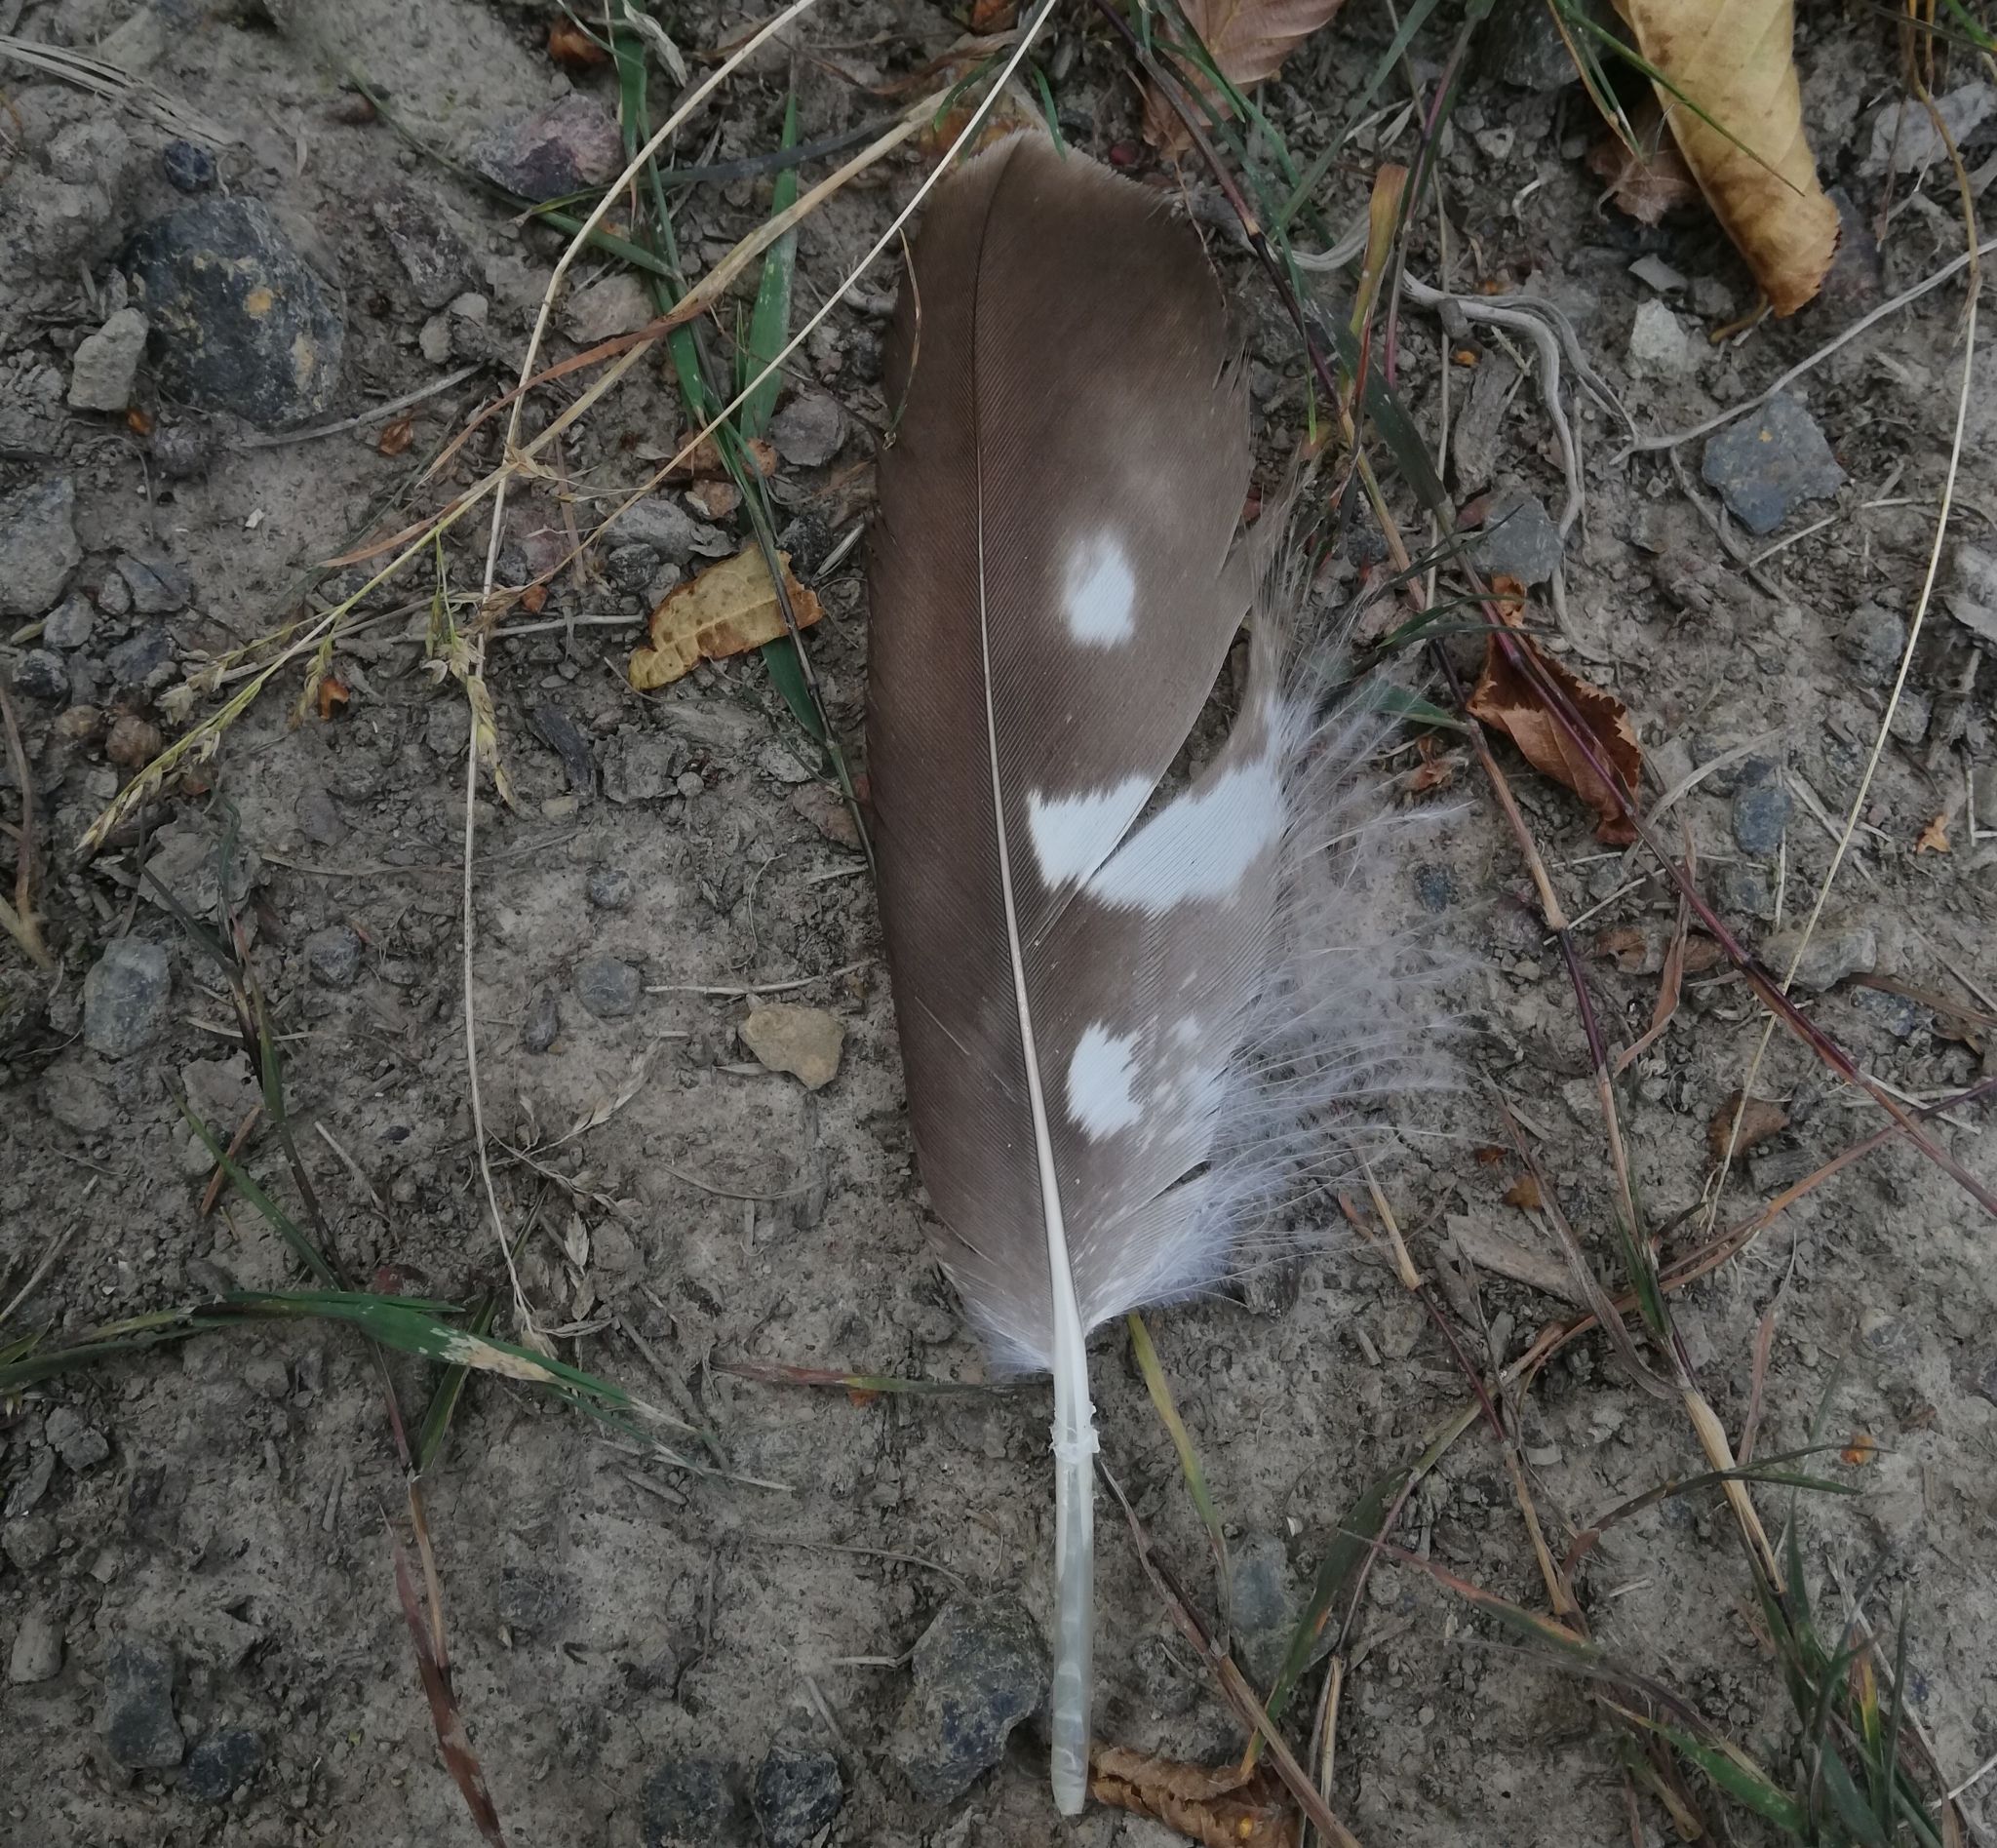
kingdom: Animalia
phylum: Chordata
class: Aves
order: Accipitriformes
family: Accipitridae
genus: Buteo
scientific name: Buteo buteo
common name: Common buzzard
